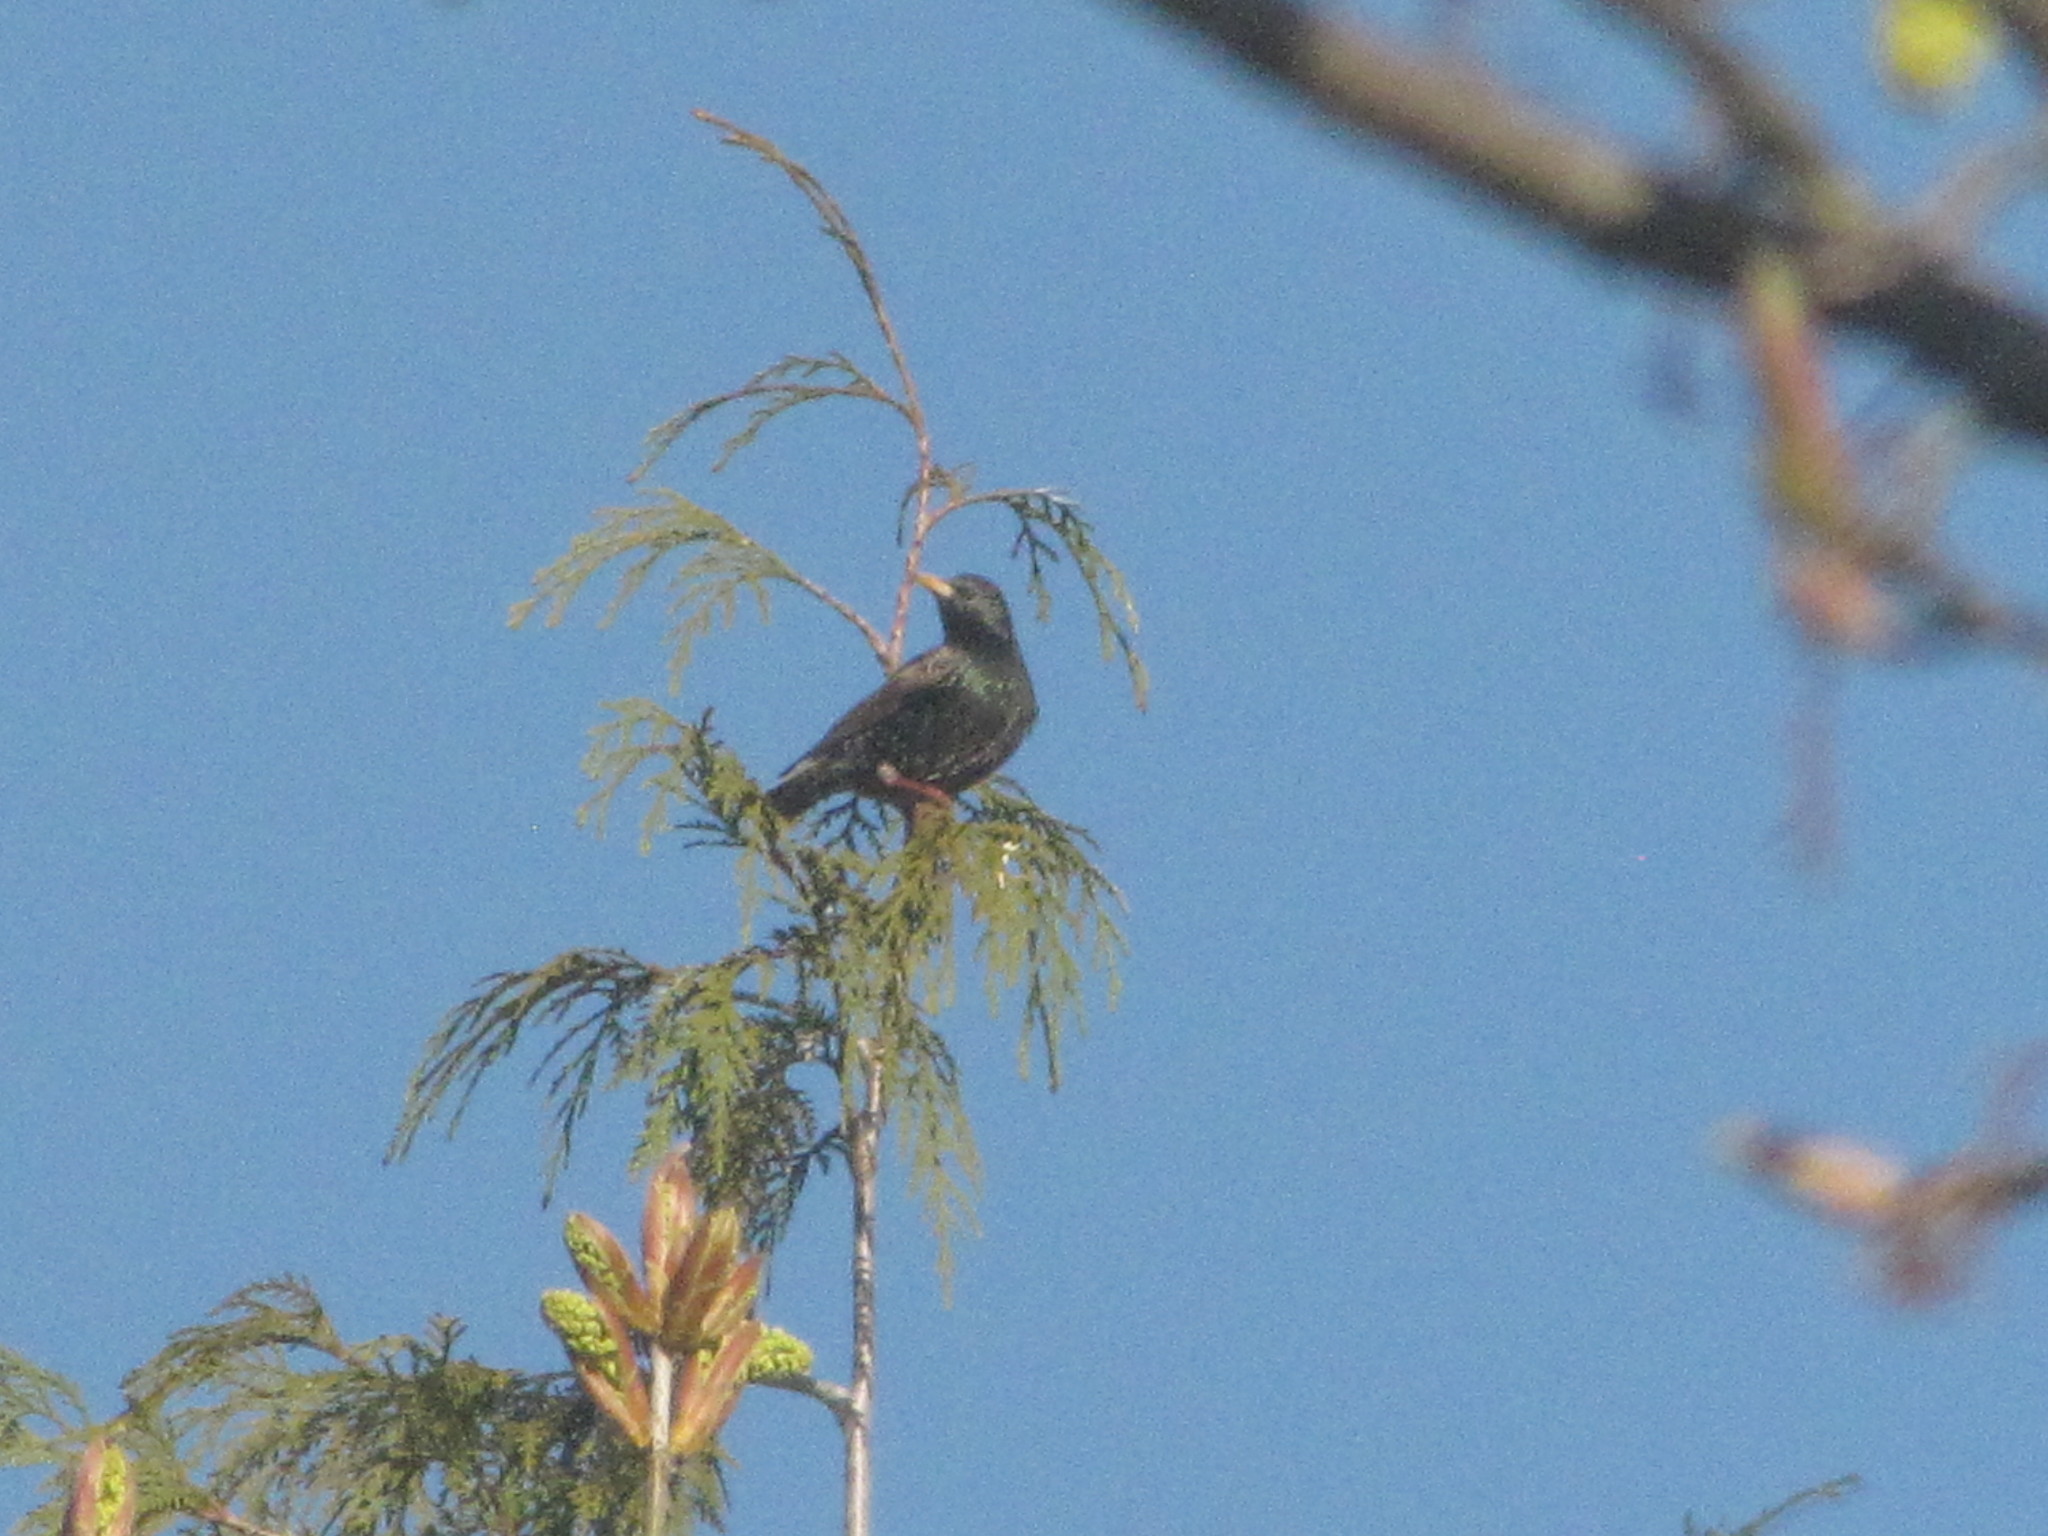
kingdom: Animalia
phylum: Chordata
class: Aves
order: Passeriformes
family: Sturnidae
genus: Sturnus
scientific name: Sturnus vulgaris
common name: Common starling
